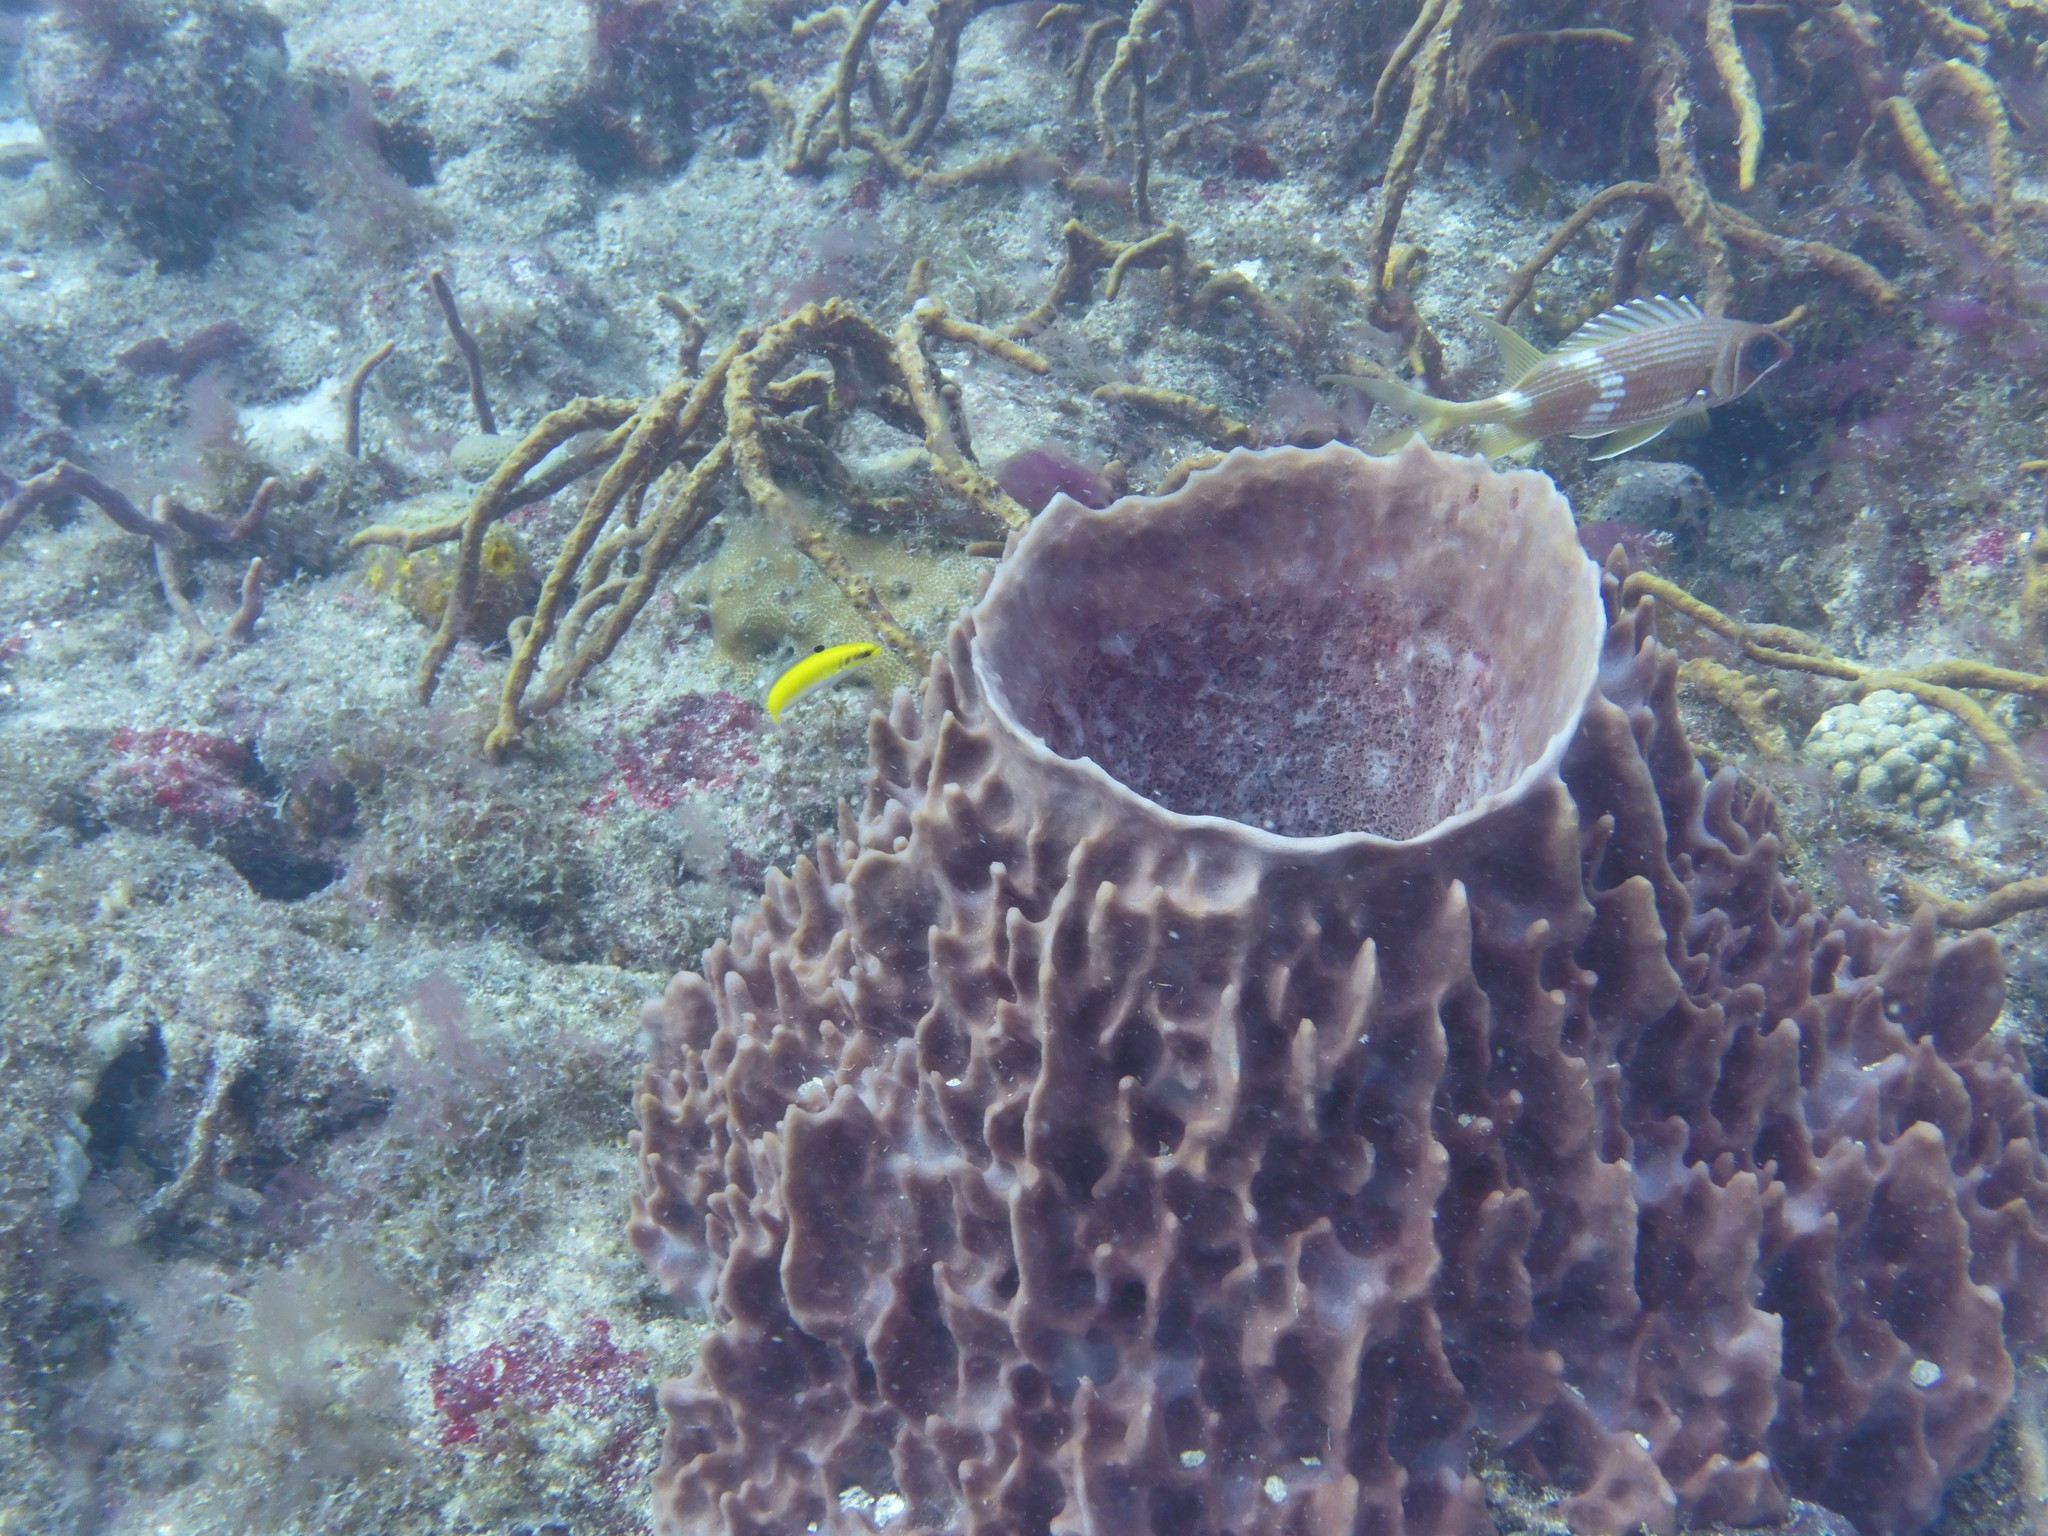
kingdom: Animalia
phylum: Porifera
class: Demospongiae
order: Haplosclerida
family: Petrosiidae
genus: Xestospongia
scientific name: Xestospongia muta
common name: Giant barrel sponge
